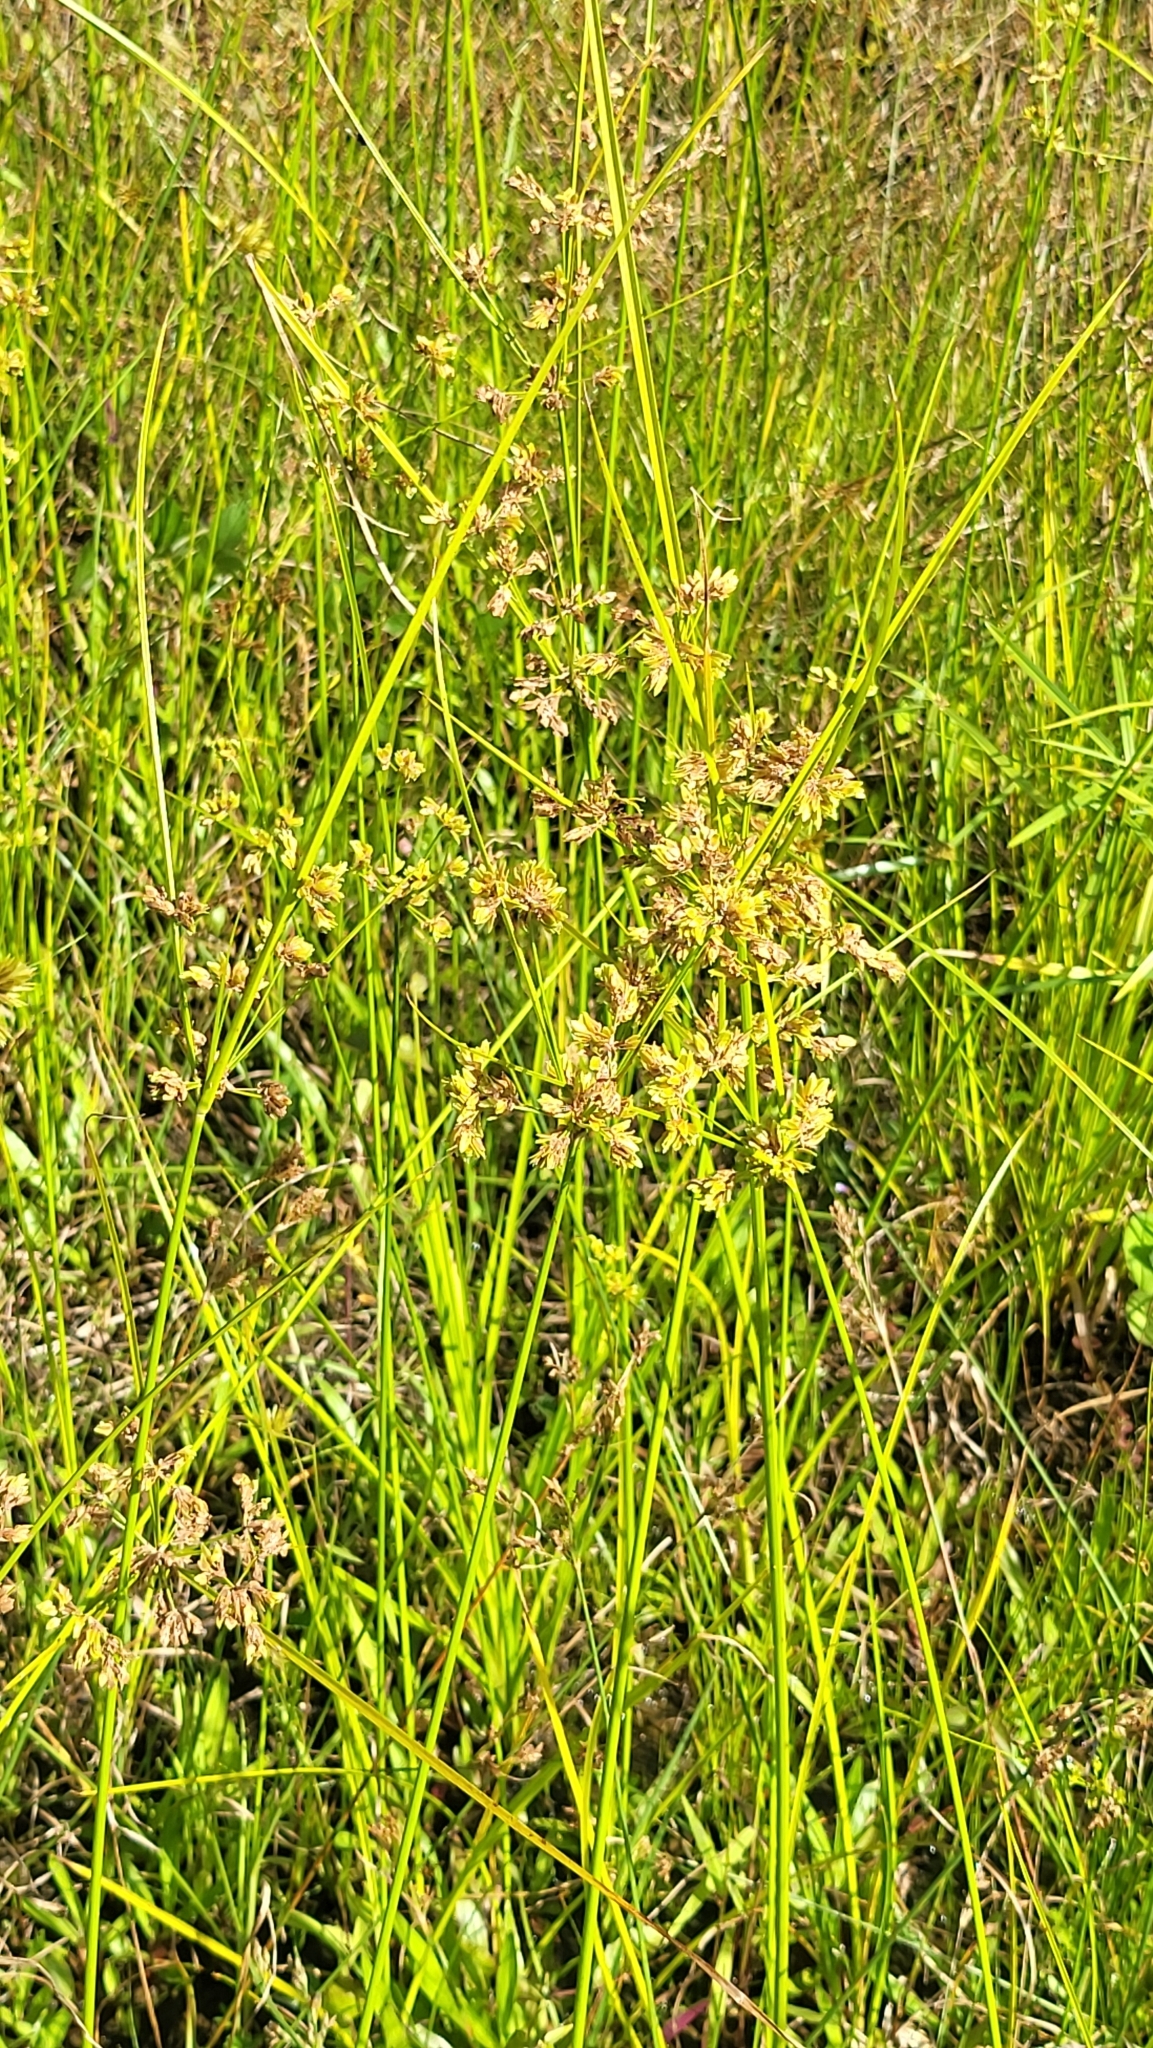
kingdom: Plantae
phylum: Tracheophyta
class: Liliopsida
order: Poales
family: Cyperaceae
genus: Cyperus
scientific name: Cyperus surinamensis
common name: Tropical flat sedge
